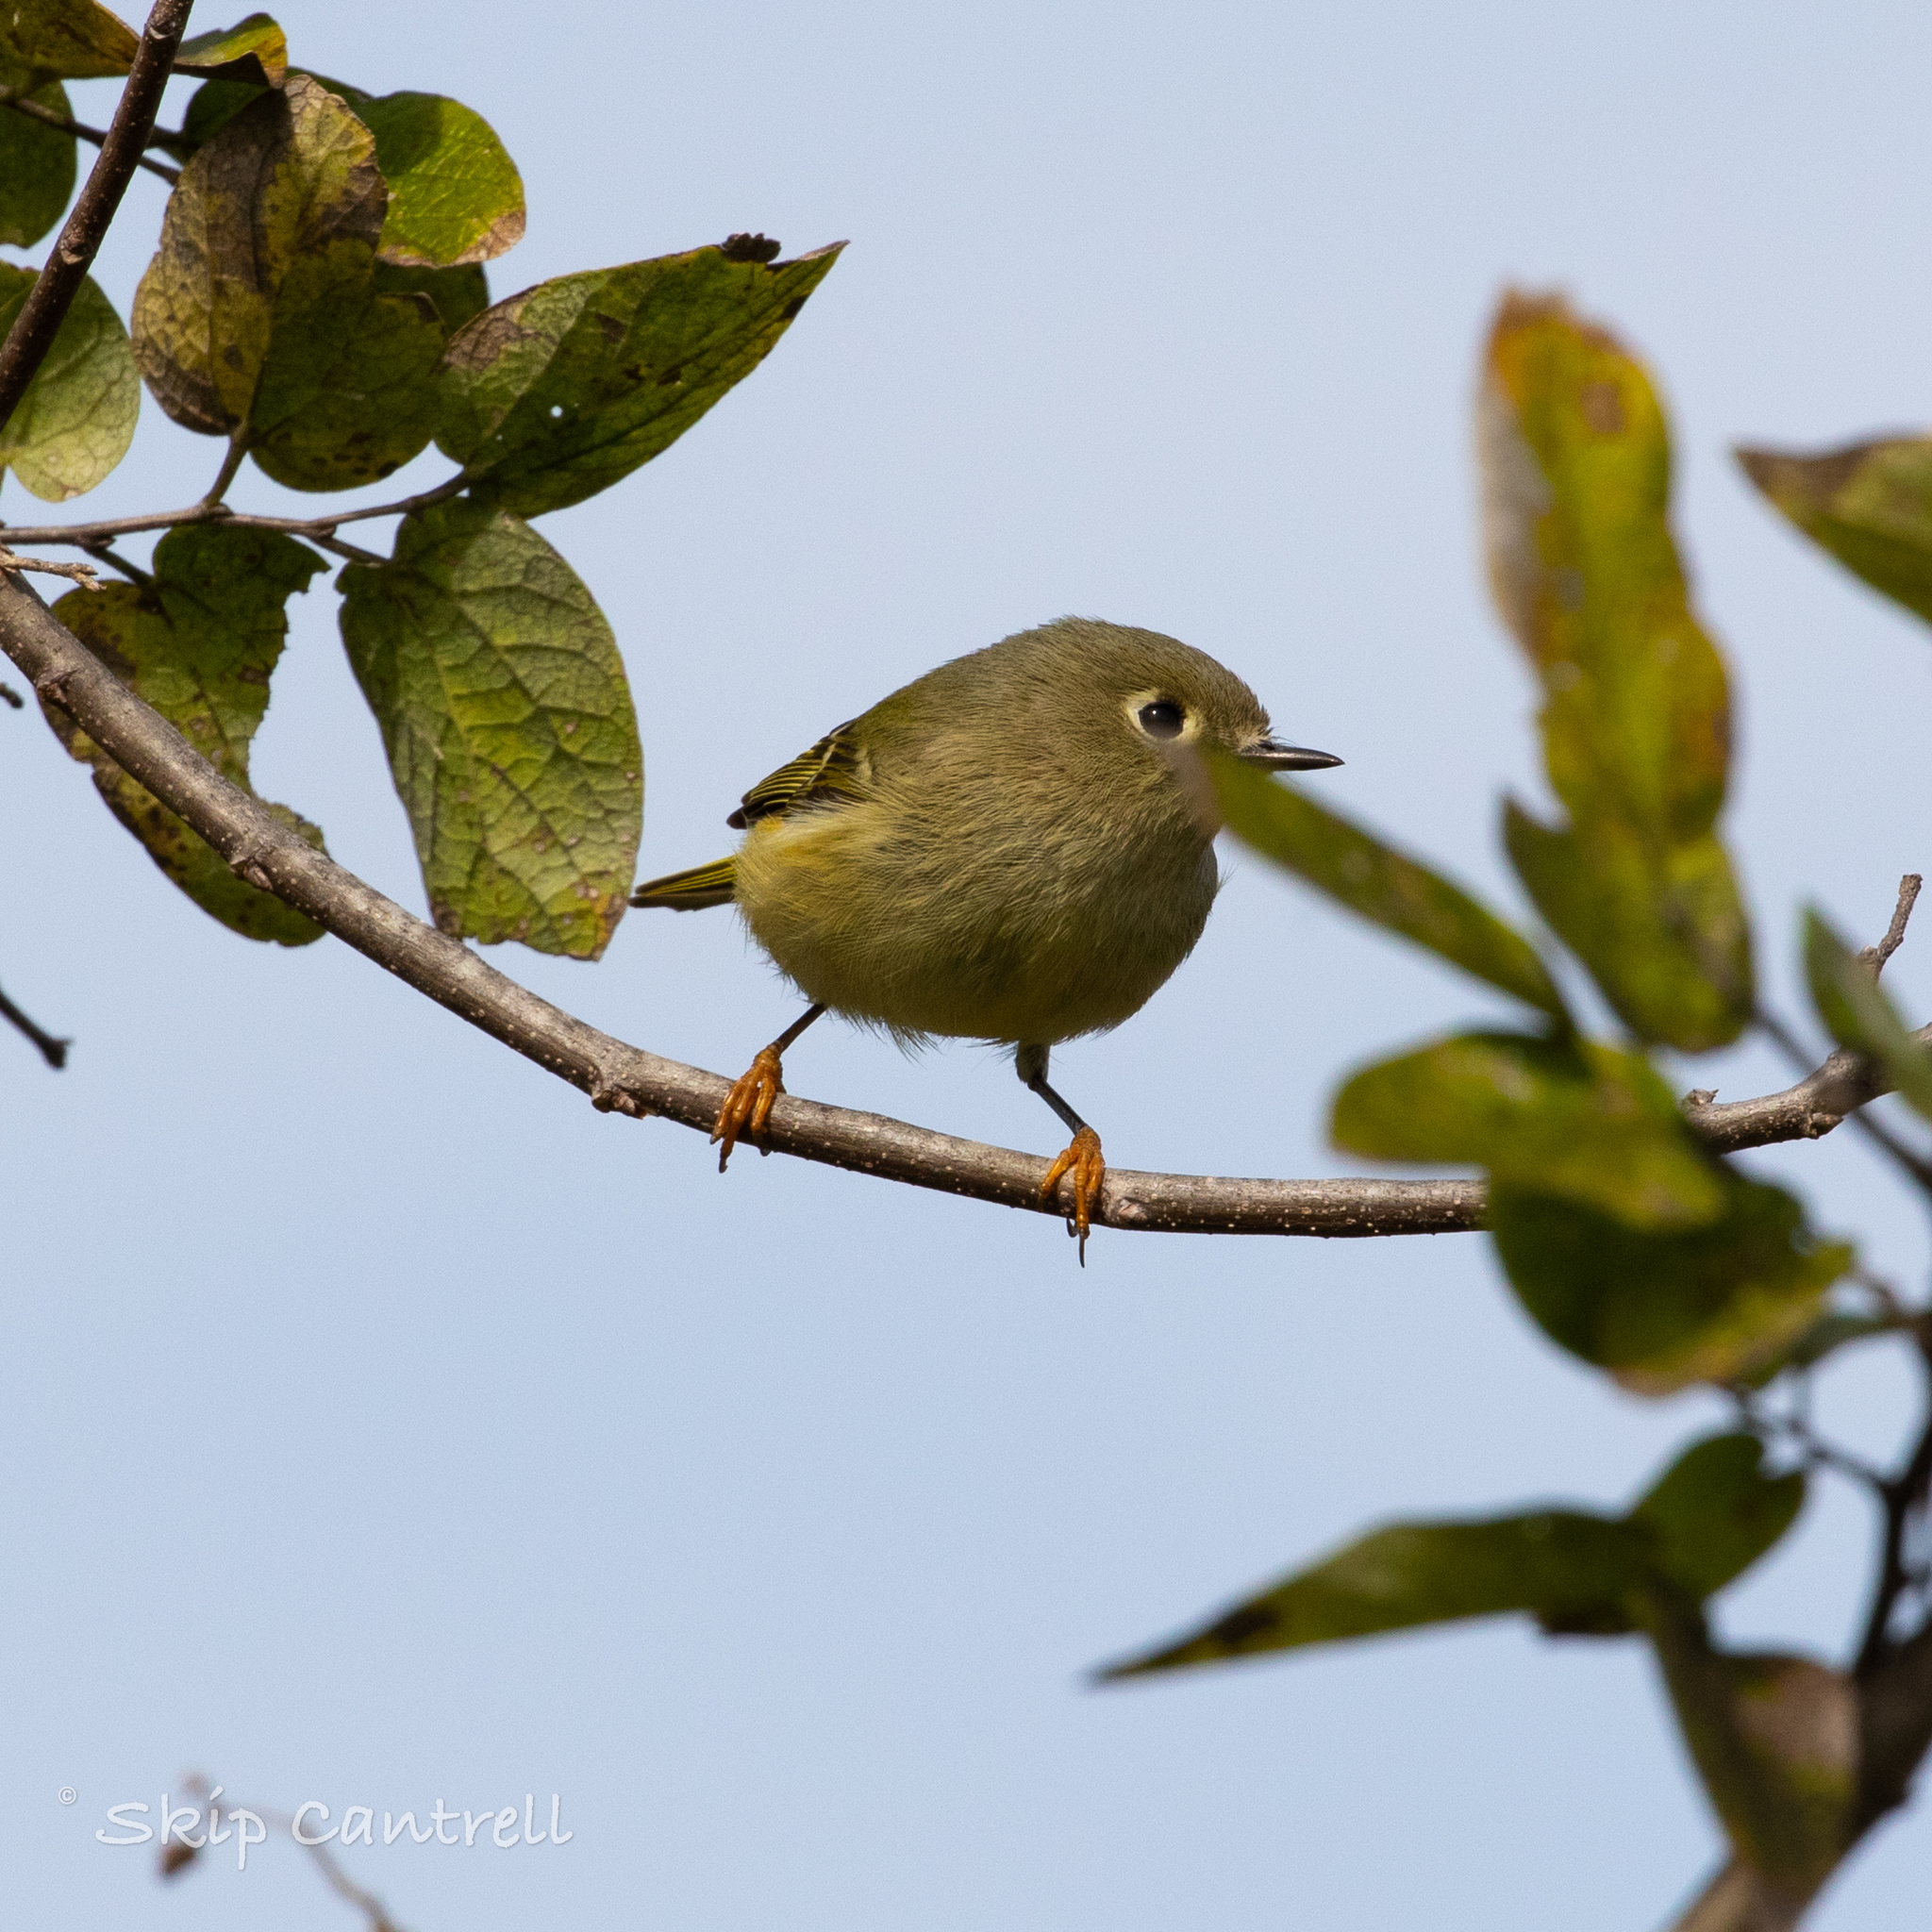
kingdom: Animalia
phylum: Chordata
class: Aves
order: Passeriformes
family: Regulidae
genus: Regulus
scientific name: Regulus calendula
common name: Ruby-crowned kinglet
